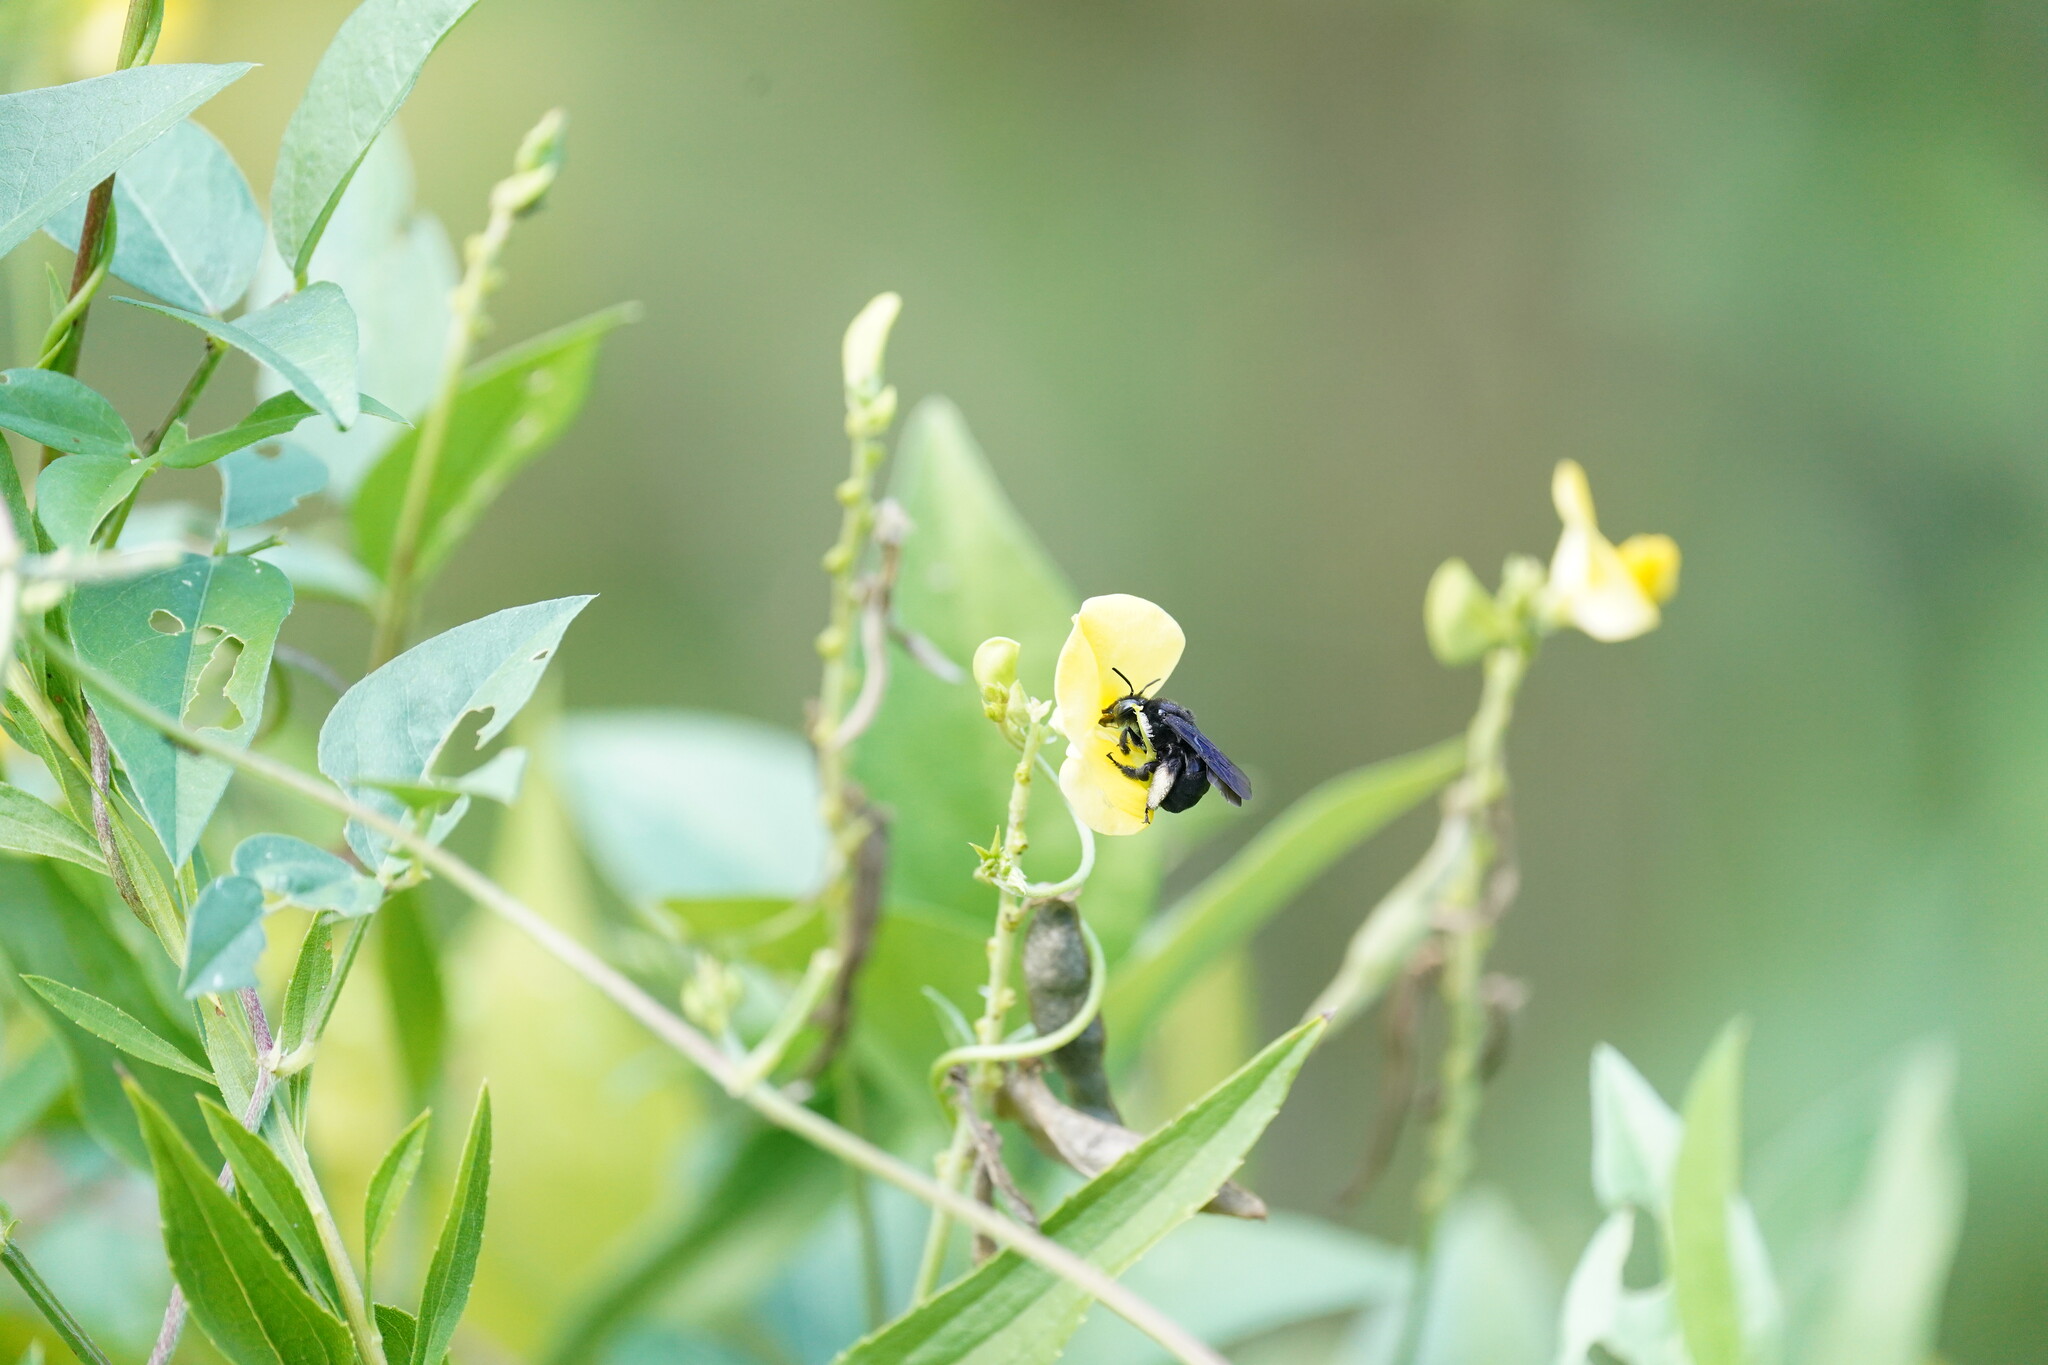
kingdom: Animalia
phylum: Arthropoda
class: Insecta
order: Hymenoptera
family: Apidae
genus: Melissodes
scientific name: Melissodes bimaculatus
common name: Two-spotted long-horned bee
